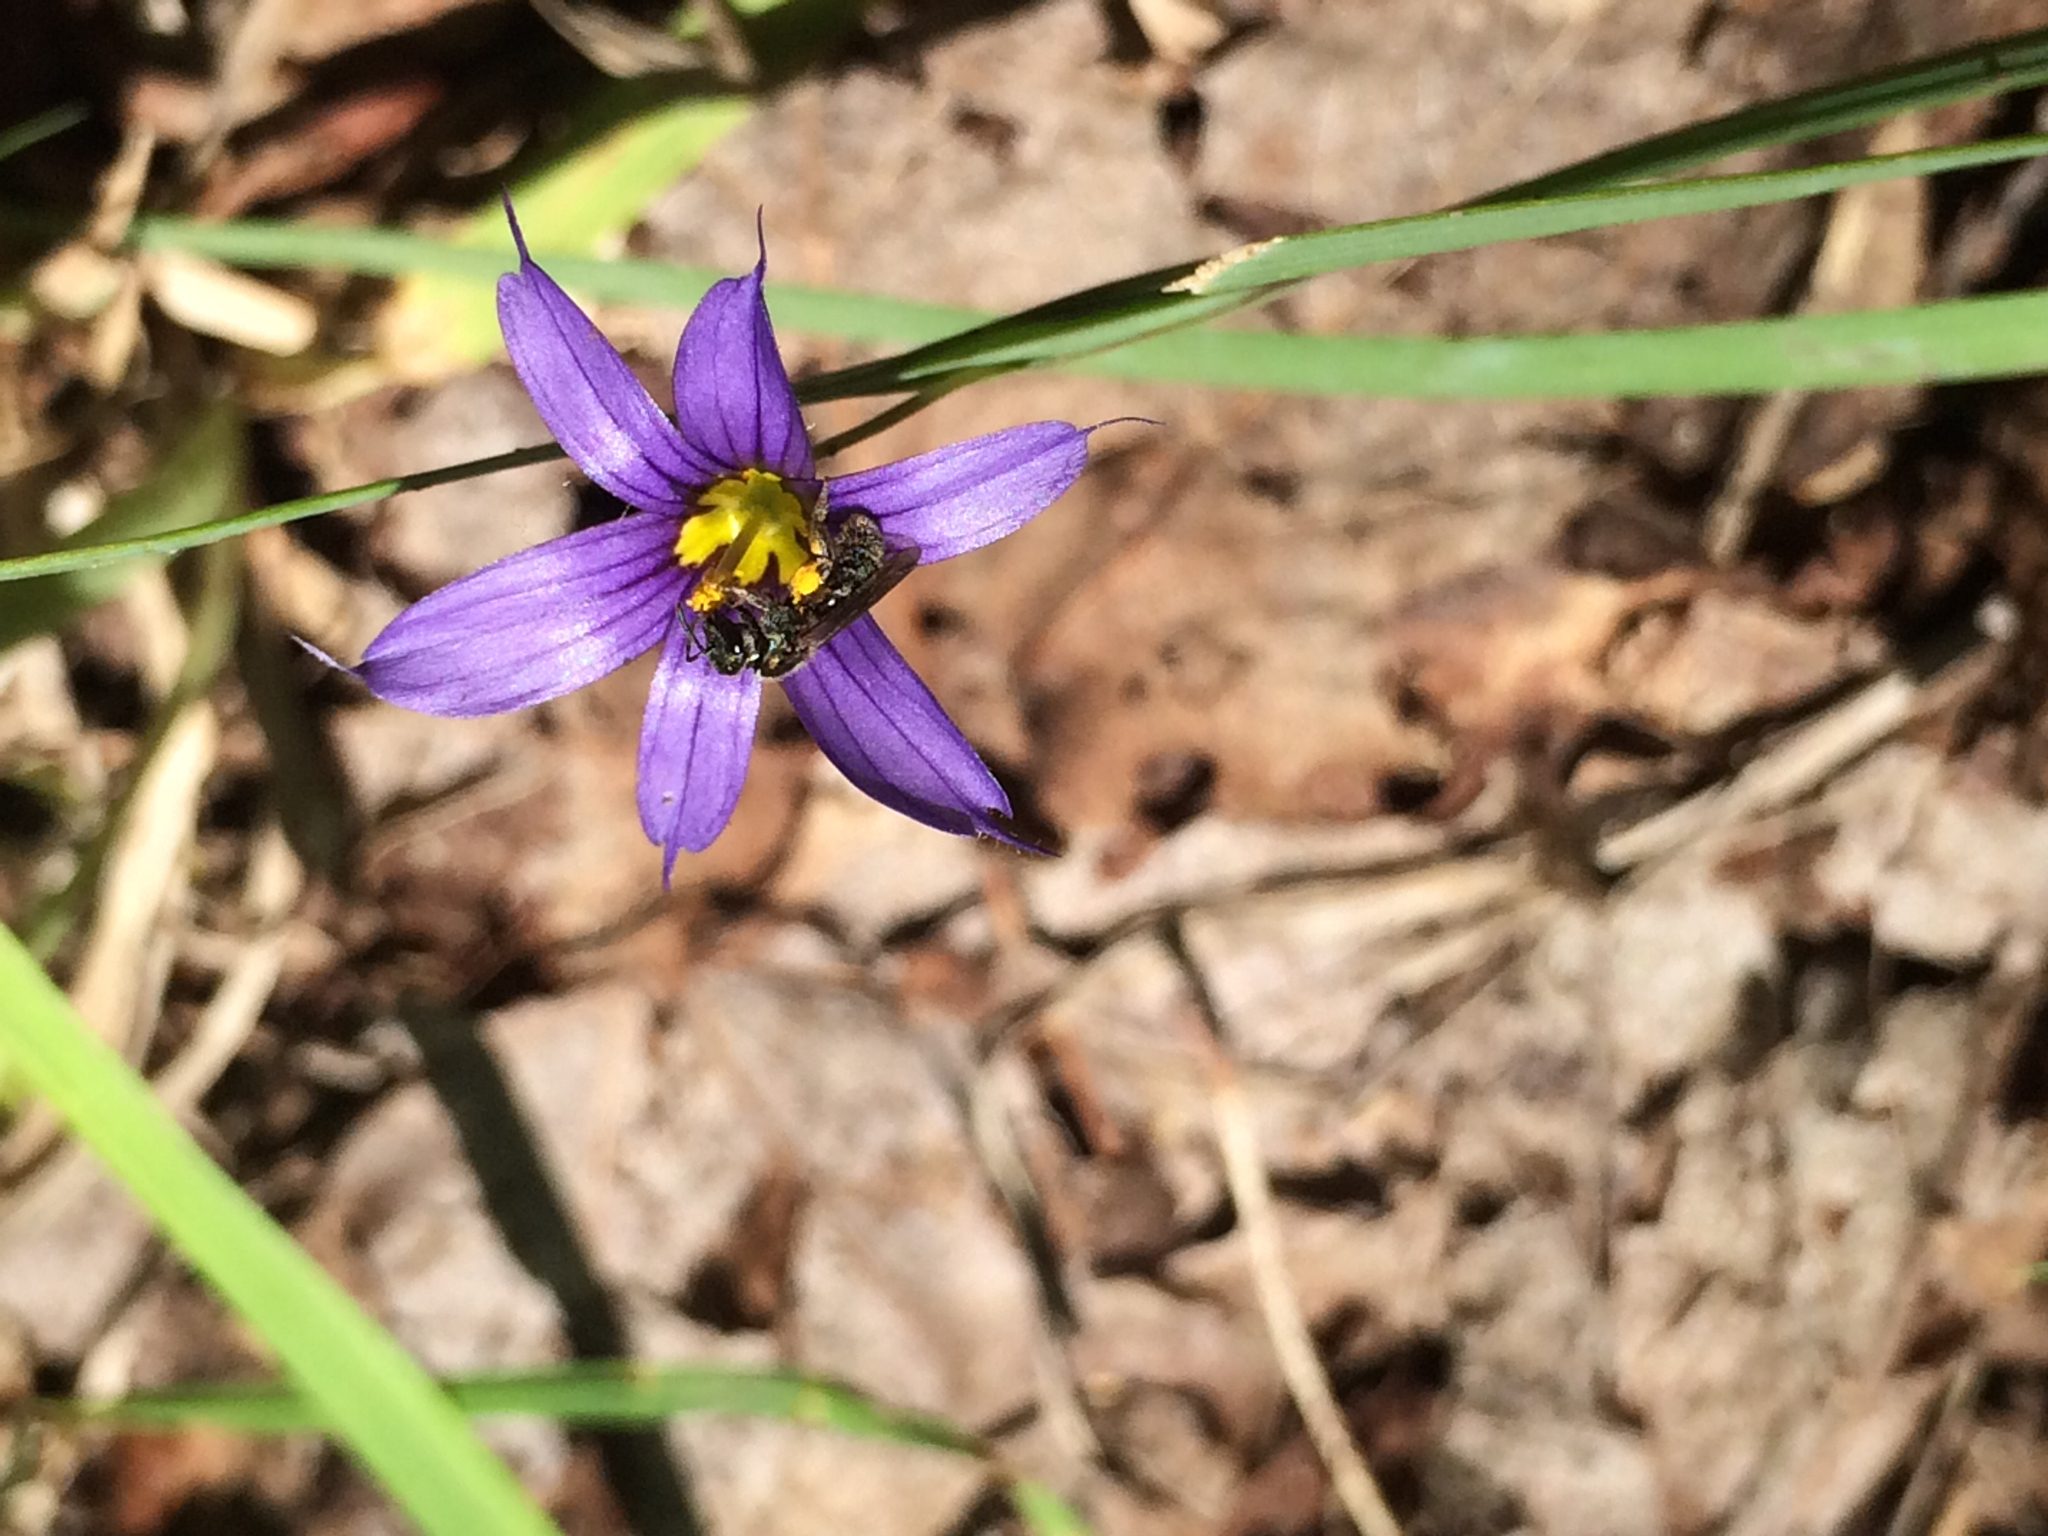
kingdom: Plantae
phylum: Tracheophyta
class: Liliopsida
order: Asparagales
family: Iridaceae
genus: Sisyrinchium
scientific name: Sisyrinchium montanum
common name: American blue-eyed-grass
